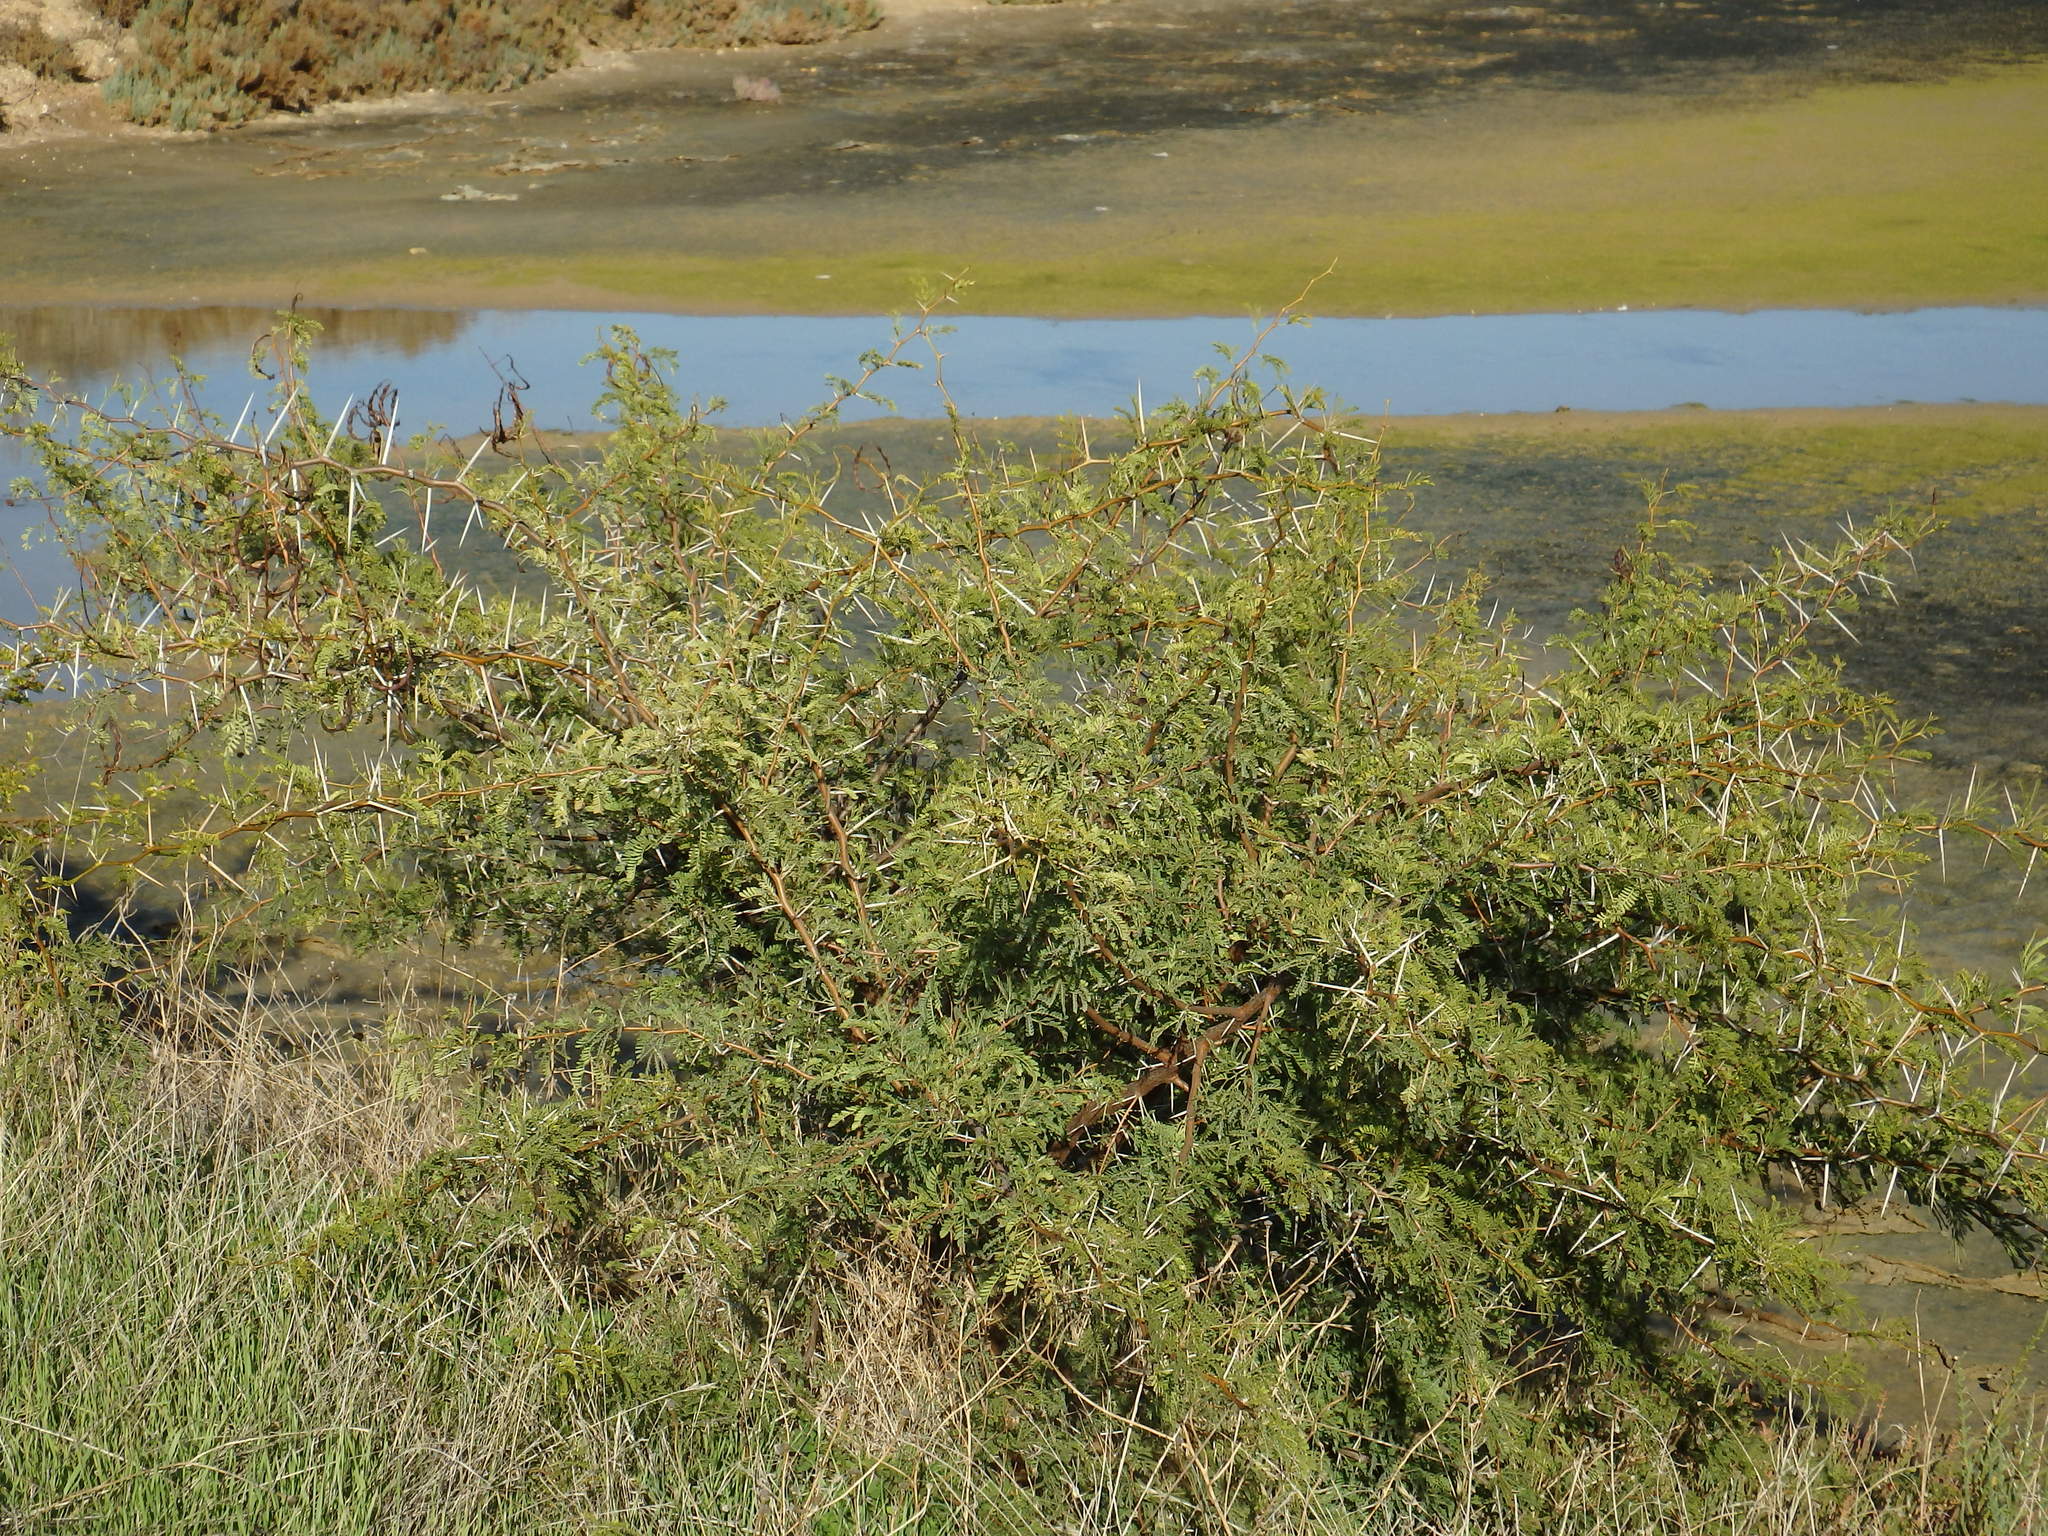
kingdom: Plantae
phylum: Tracheophyta
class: Magnoliopsida
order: Fabales
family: Fabaceae
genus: Vachellia
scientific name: Vachellia karroo
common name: Sweet thorn
